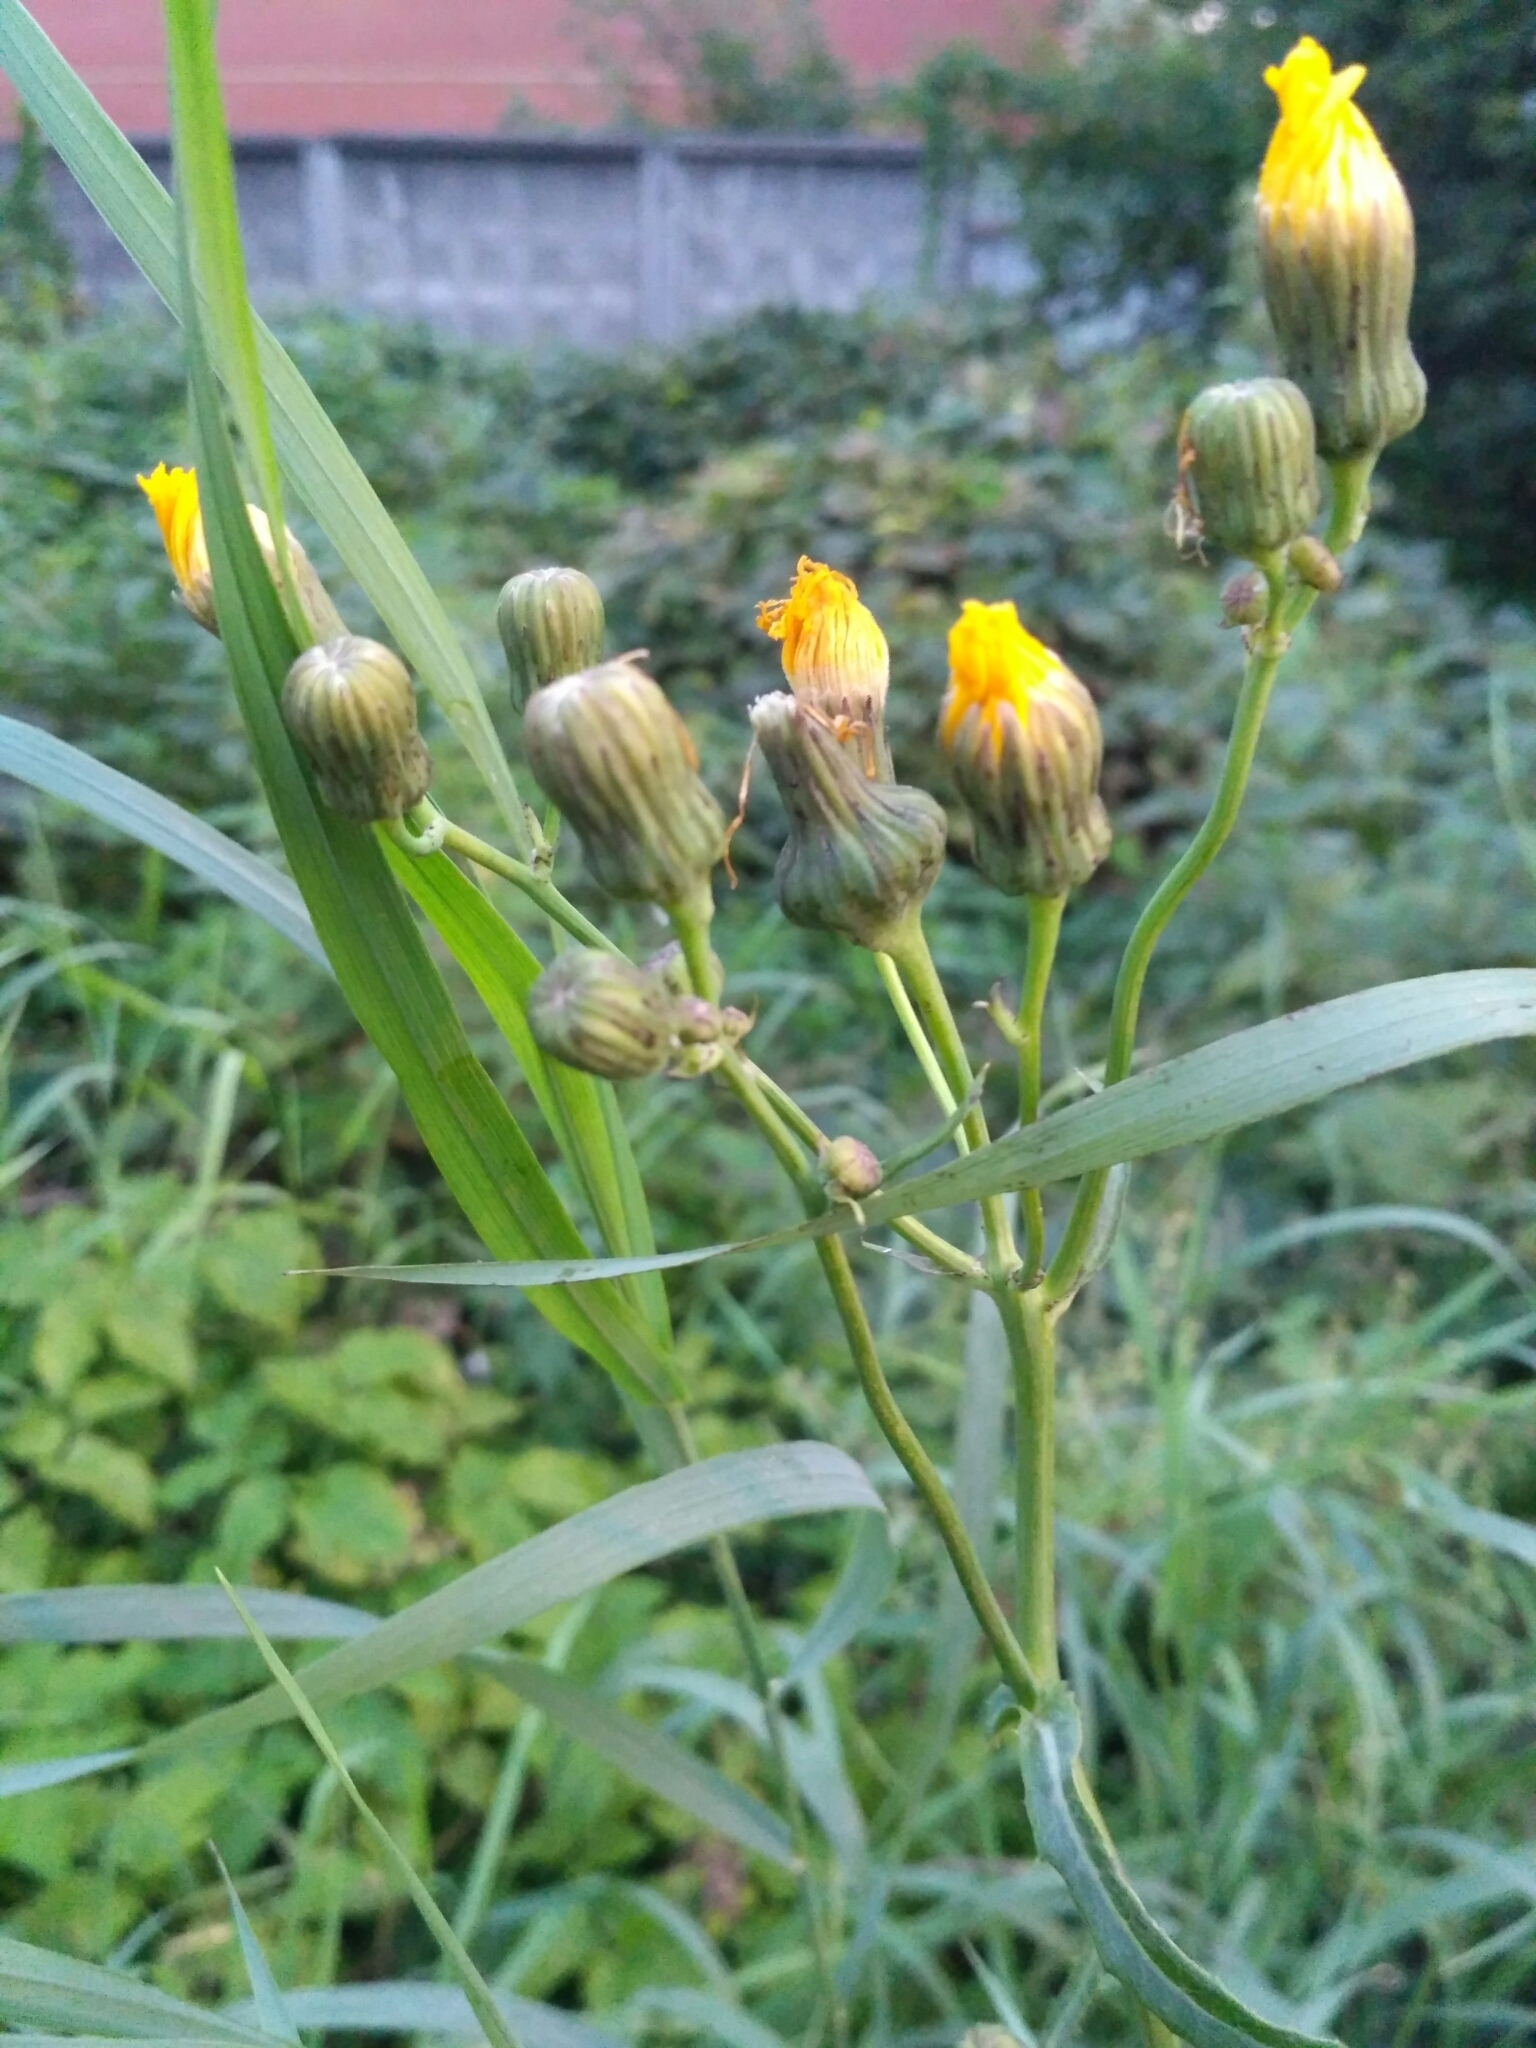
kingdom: Plantae
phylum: Tracheophyta
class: Magnoliopsida
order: Asterales
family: Asteraceae
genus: Sonchus
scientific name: Sonchus arvensis
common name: Perennial sow-thistle
